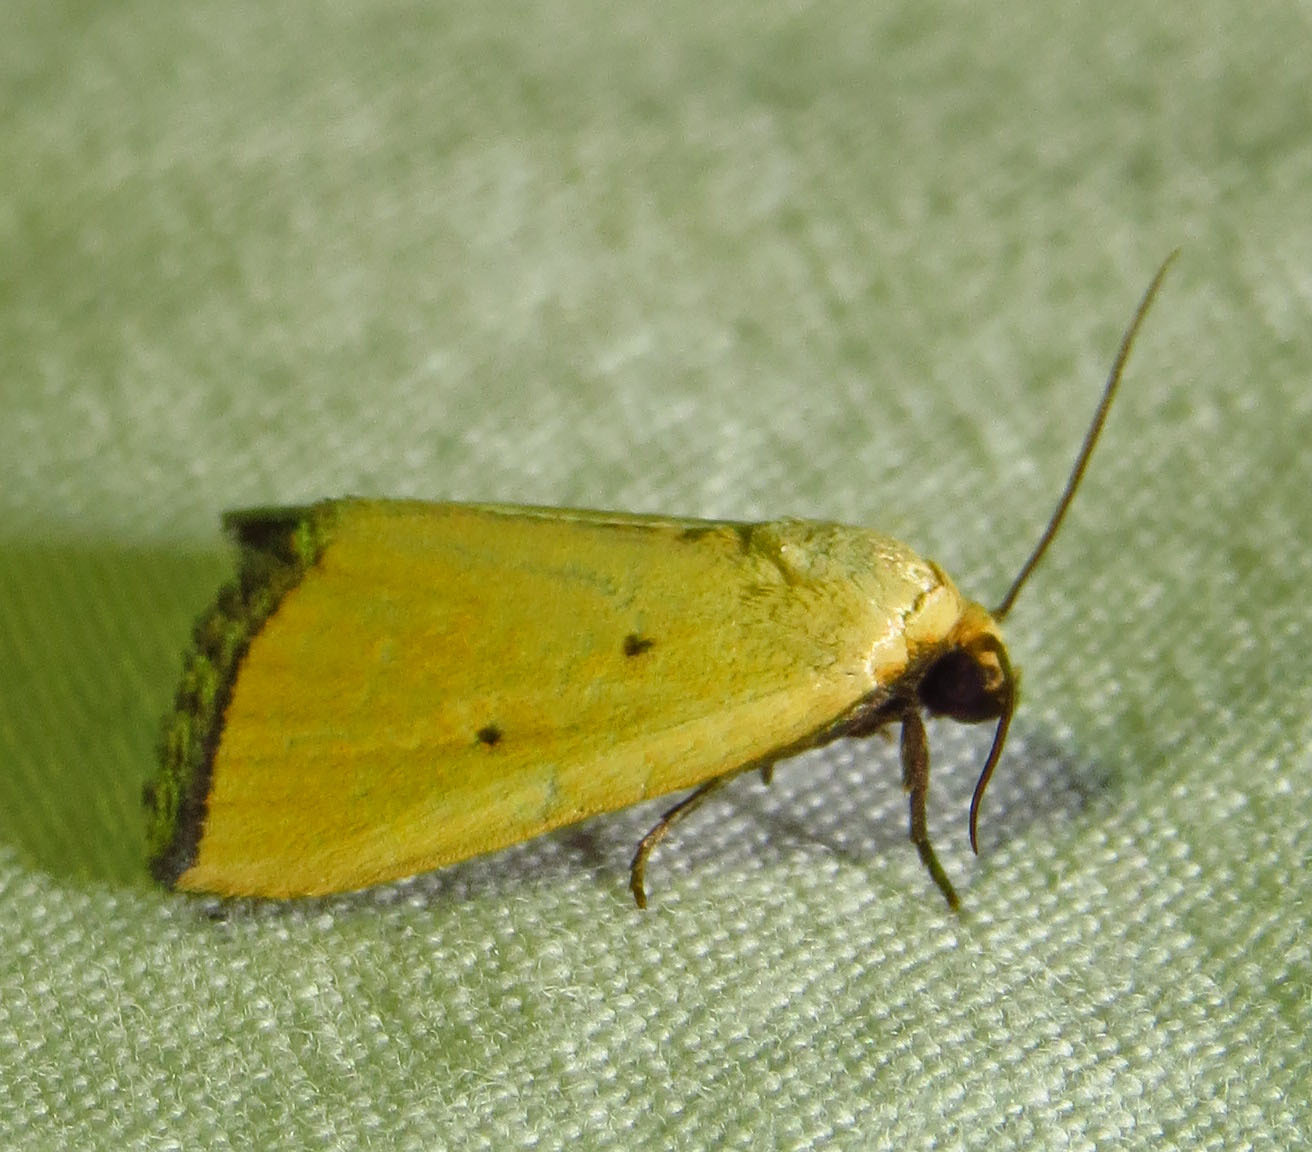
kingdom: Animalia
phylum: Arthropoda
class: Insecta
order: Lepidoptera
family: Noctuidae
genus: Marimatha
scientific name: Marimatha nigrofimbria
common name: Black-bordered lemon moth
